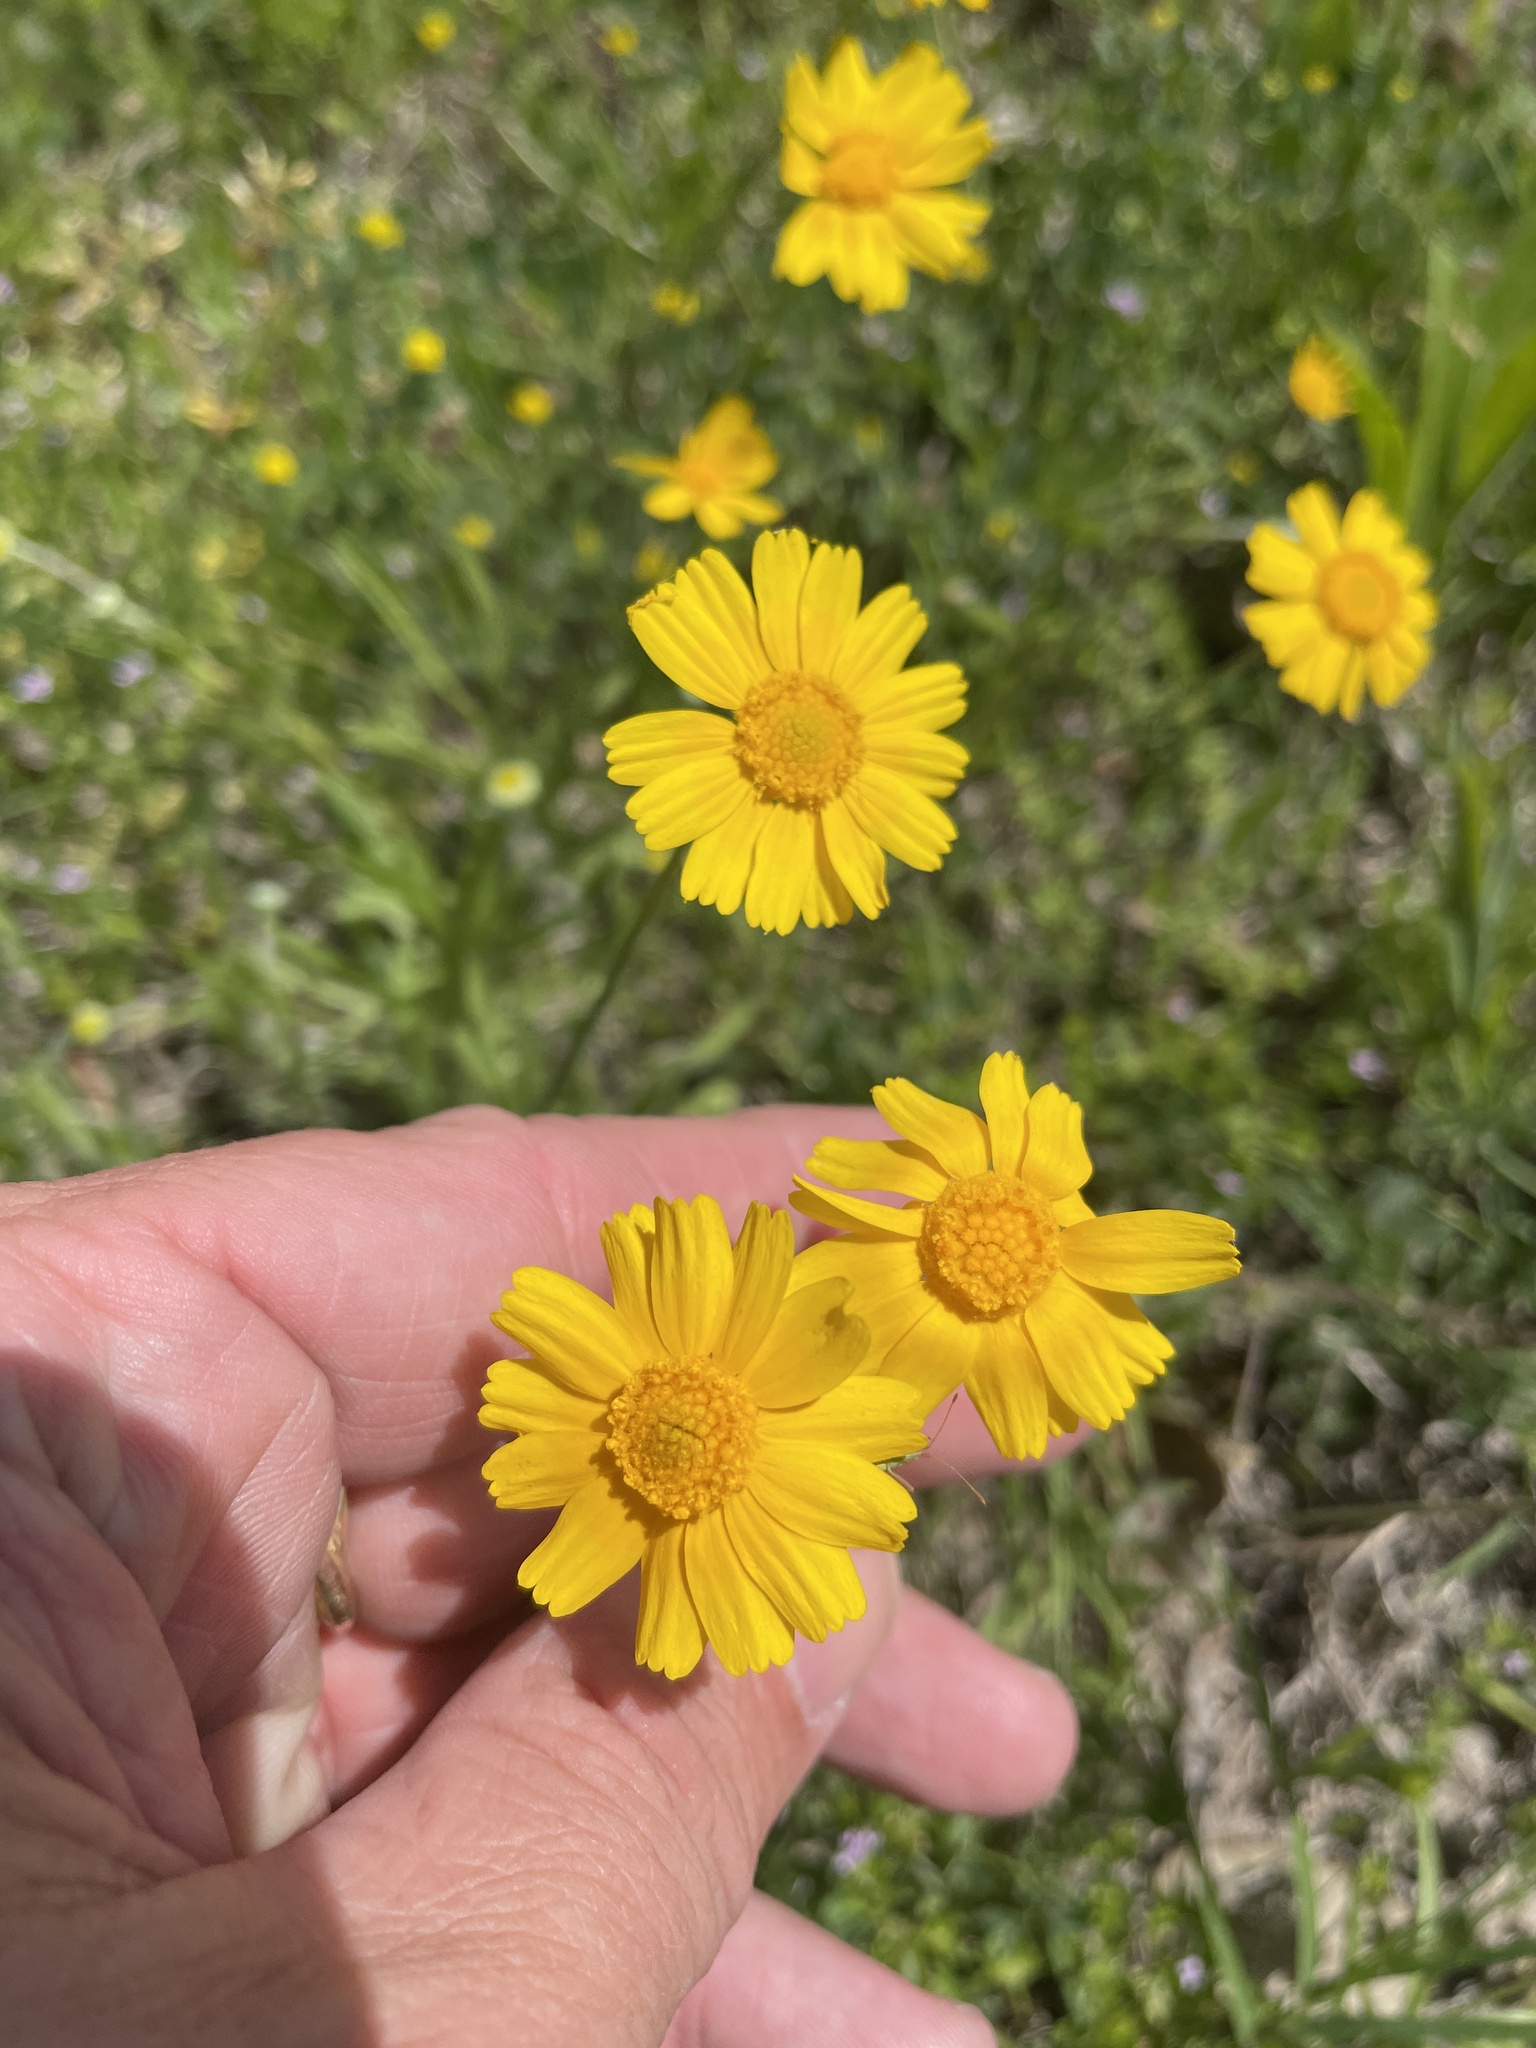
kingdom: Plantae
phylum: Tracheophyta
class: Magnoliopsida
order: Asterales
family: Asteraceae
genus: Tetraneuris
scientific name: Tetraneuris linearifolia
